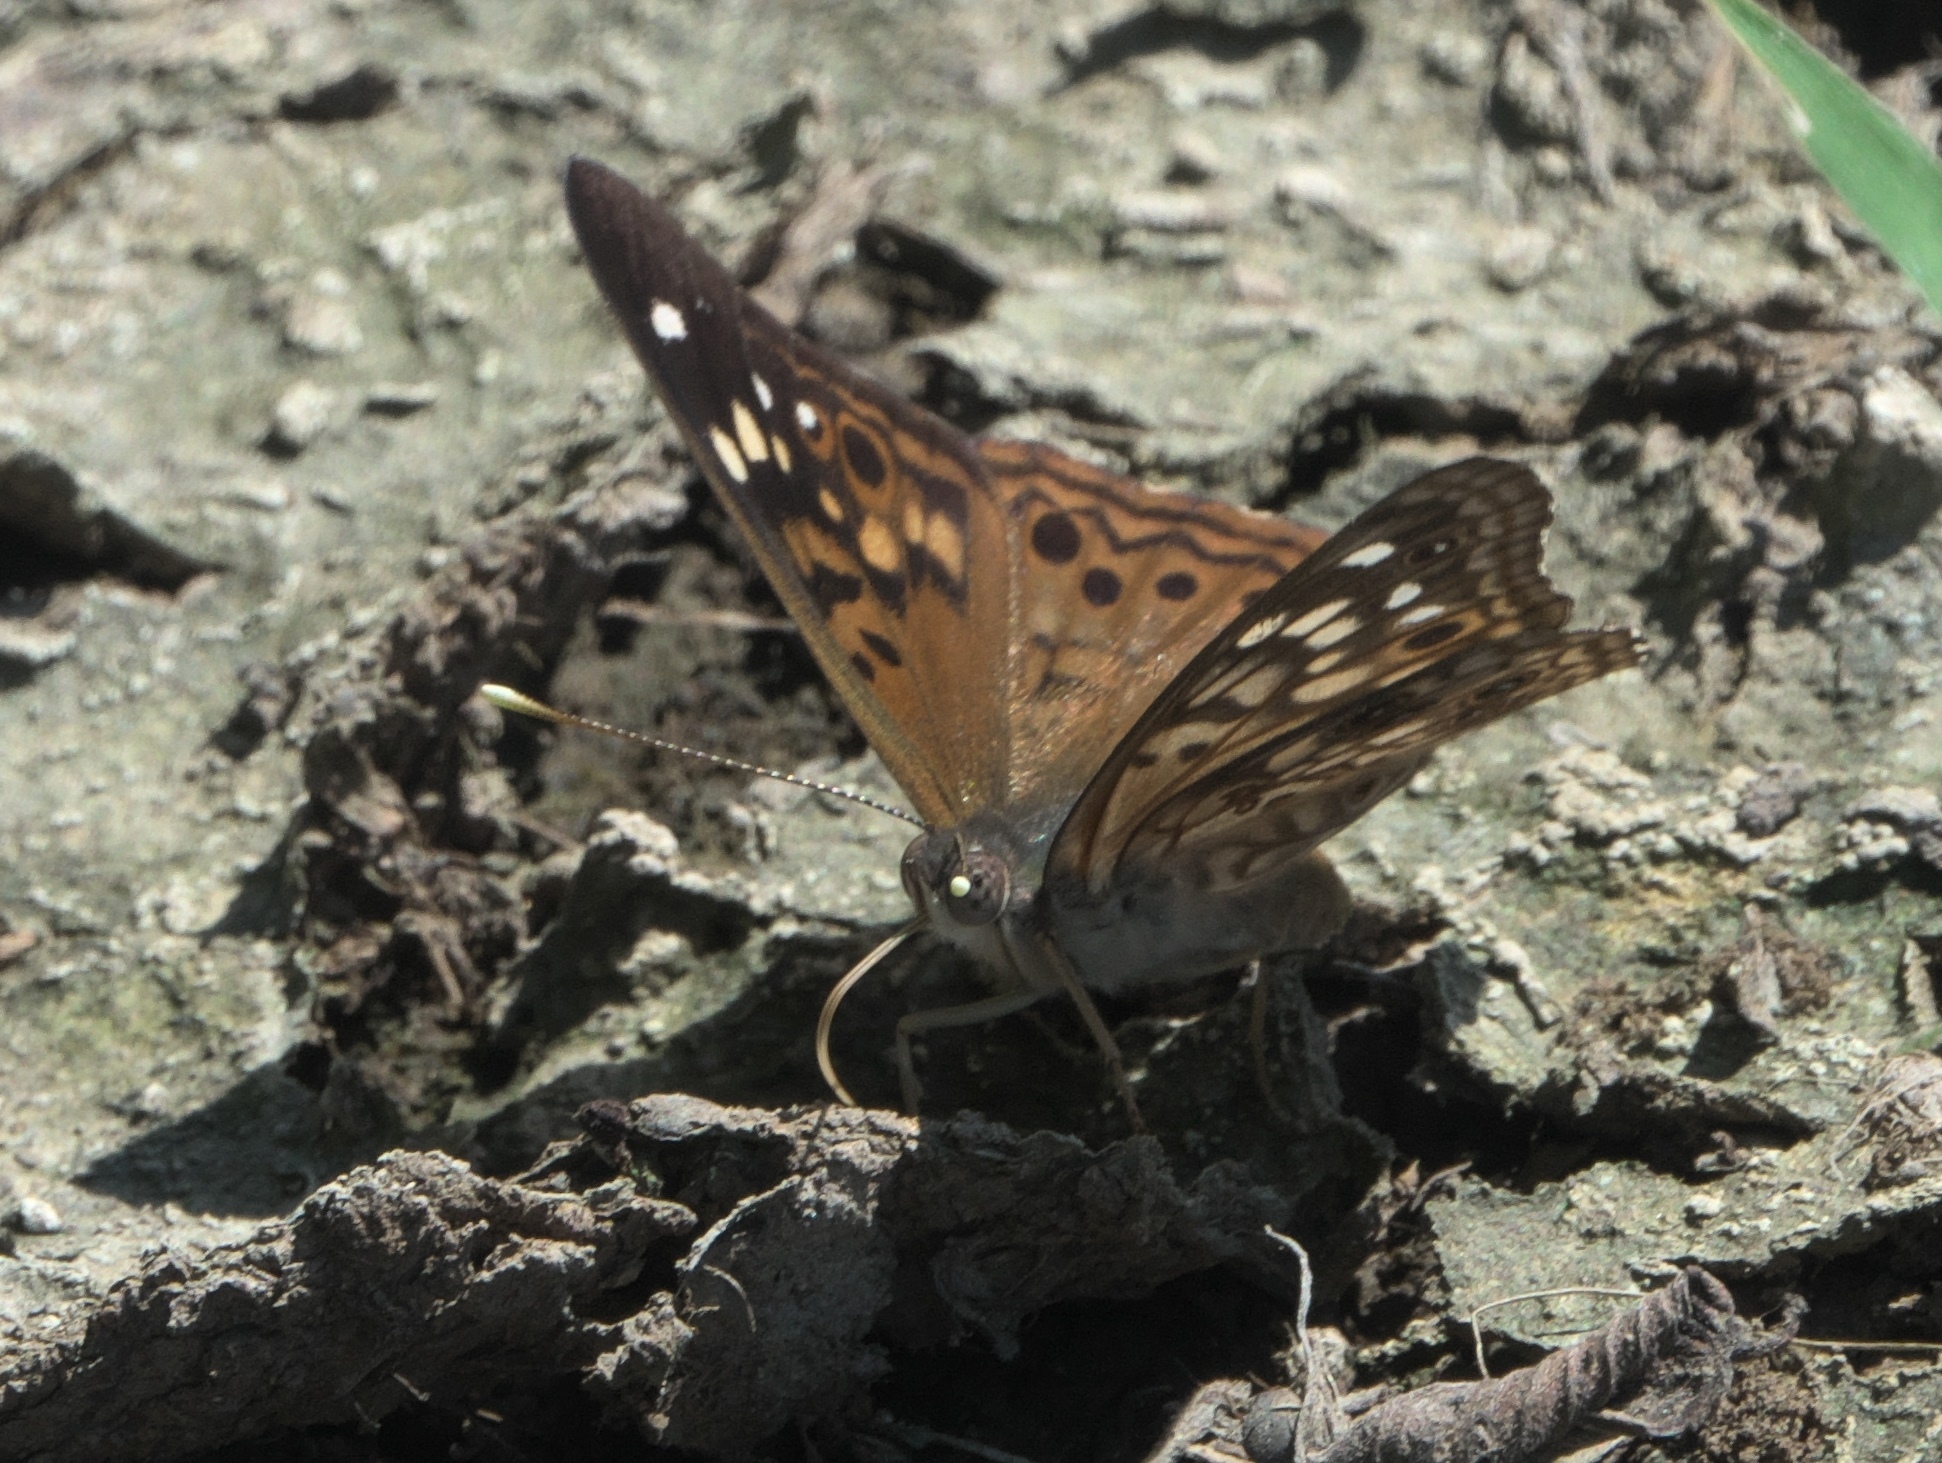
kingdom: Animalia
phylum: Arthropoda
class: Insecta
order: Lepidoptera
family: Nymphalidae
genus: Asterocampa
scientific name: Asterocampa celtis
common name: Hackberry emperor
